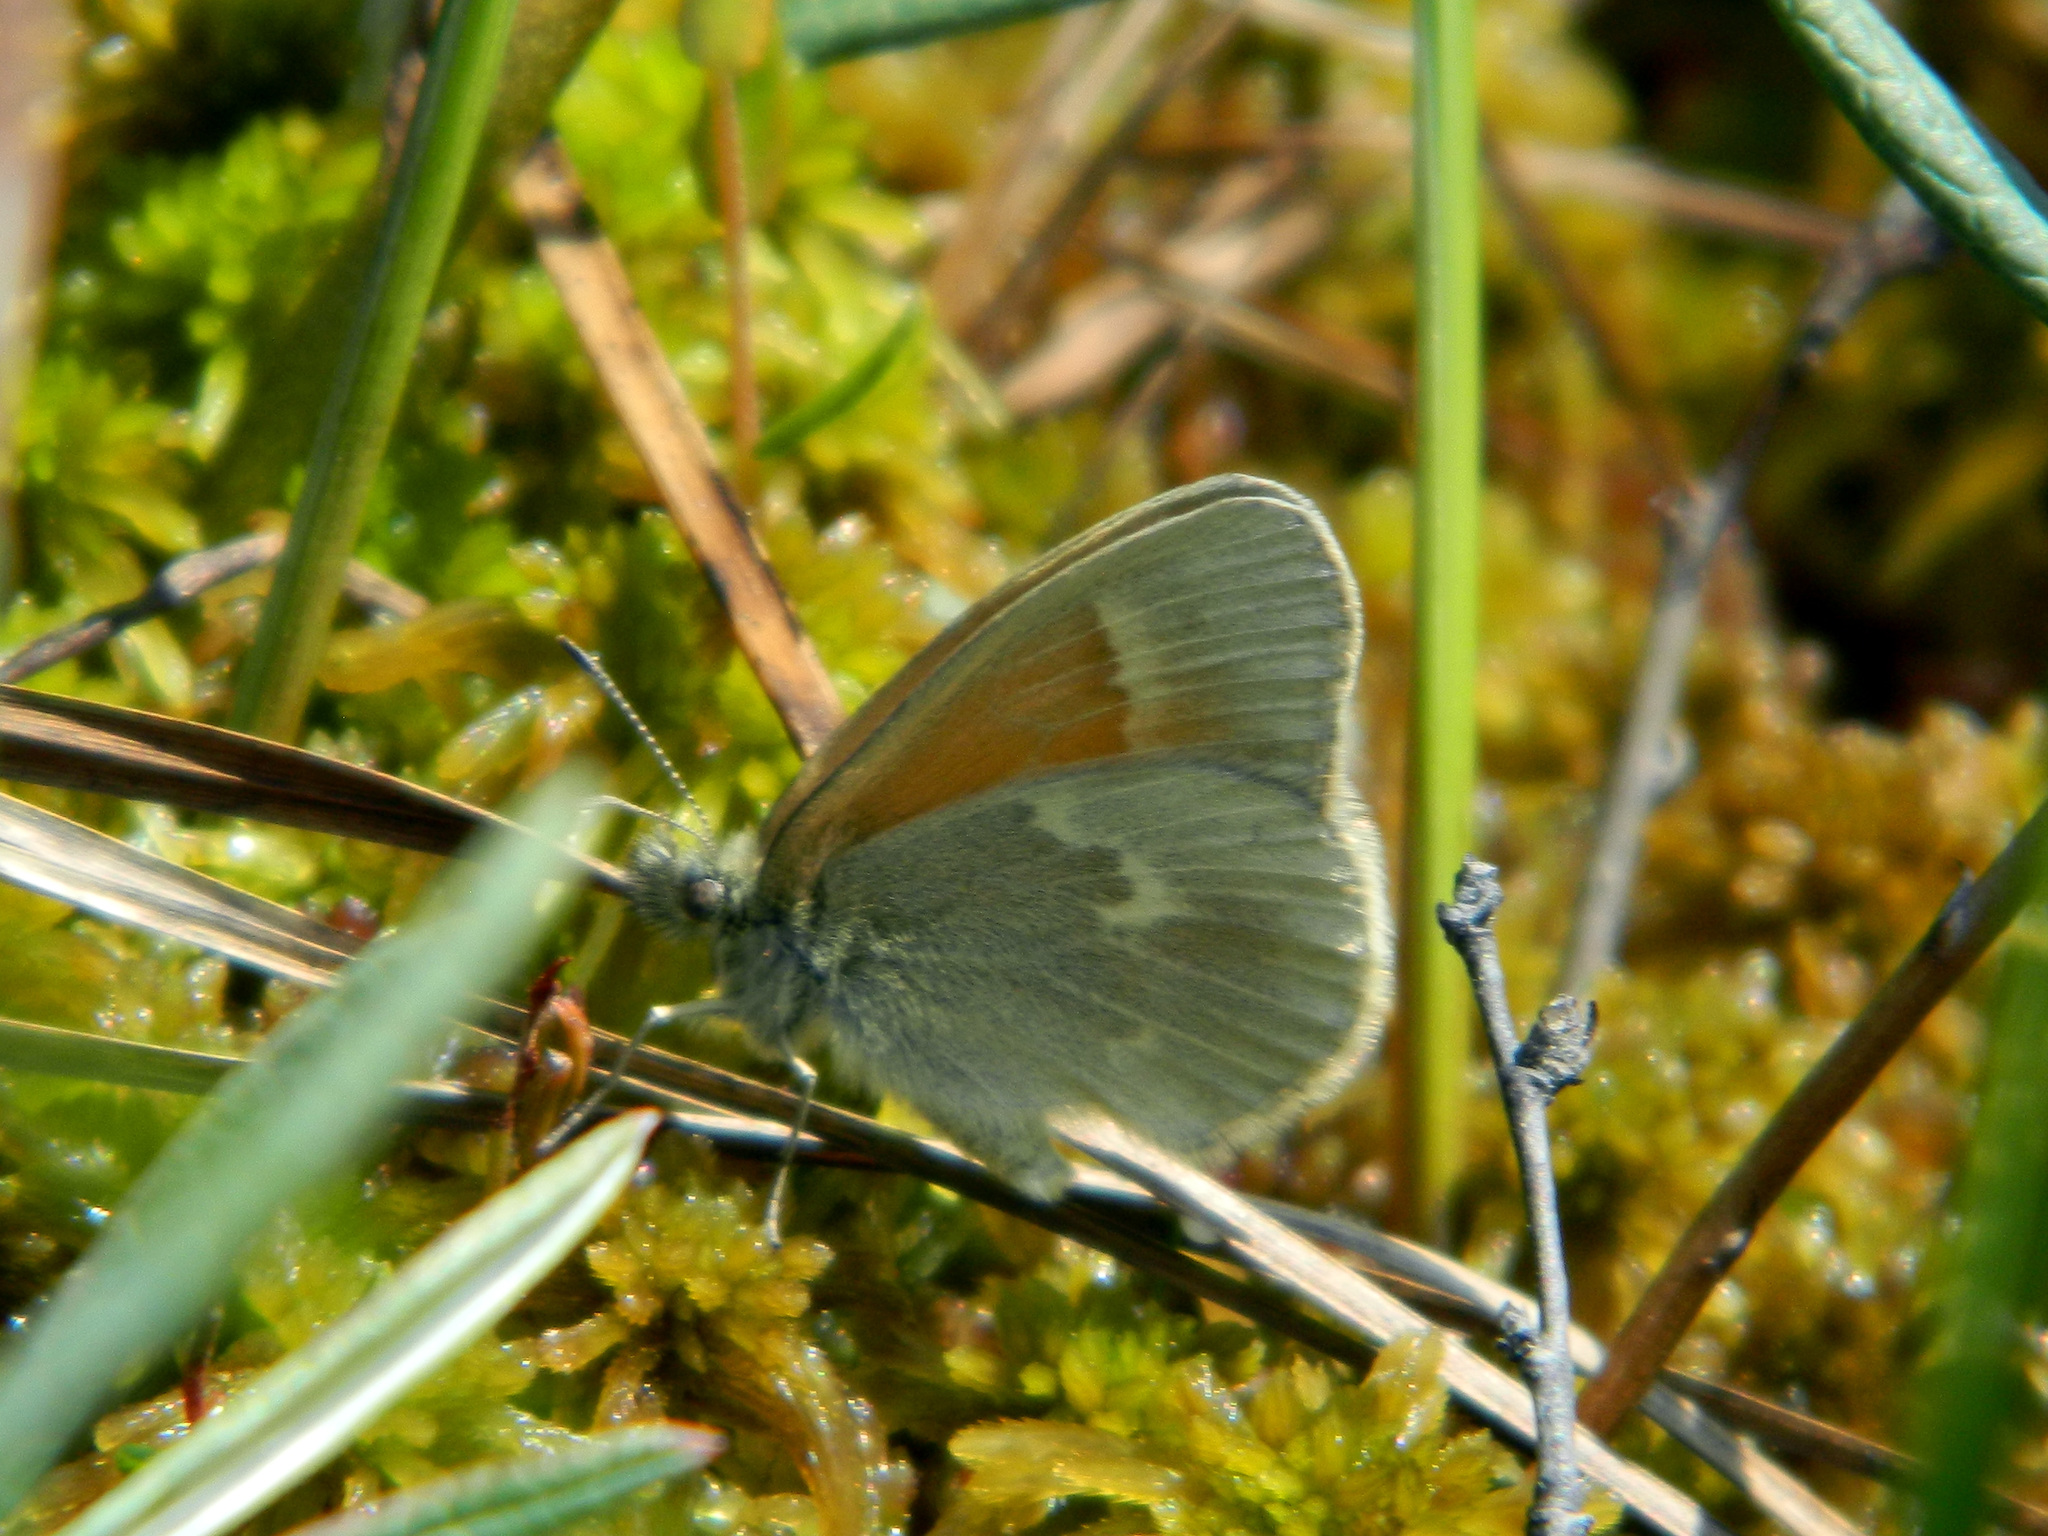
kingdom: Animalia
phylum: Arthropoda
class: Insecta
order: Lepidoptera
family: Nymphalidae
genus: Coenonympha
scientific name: Coenonympha california
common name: Common ringlet
